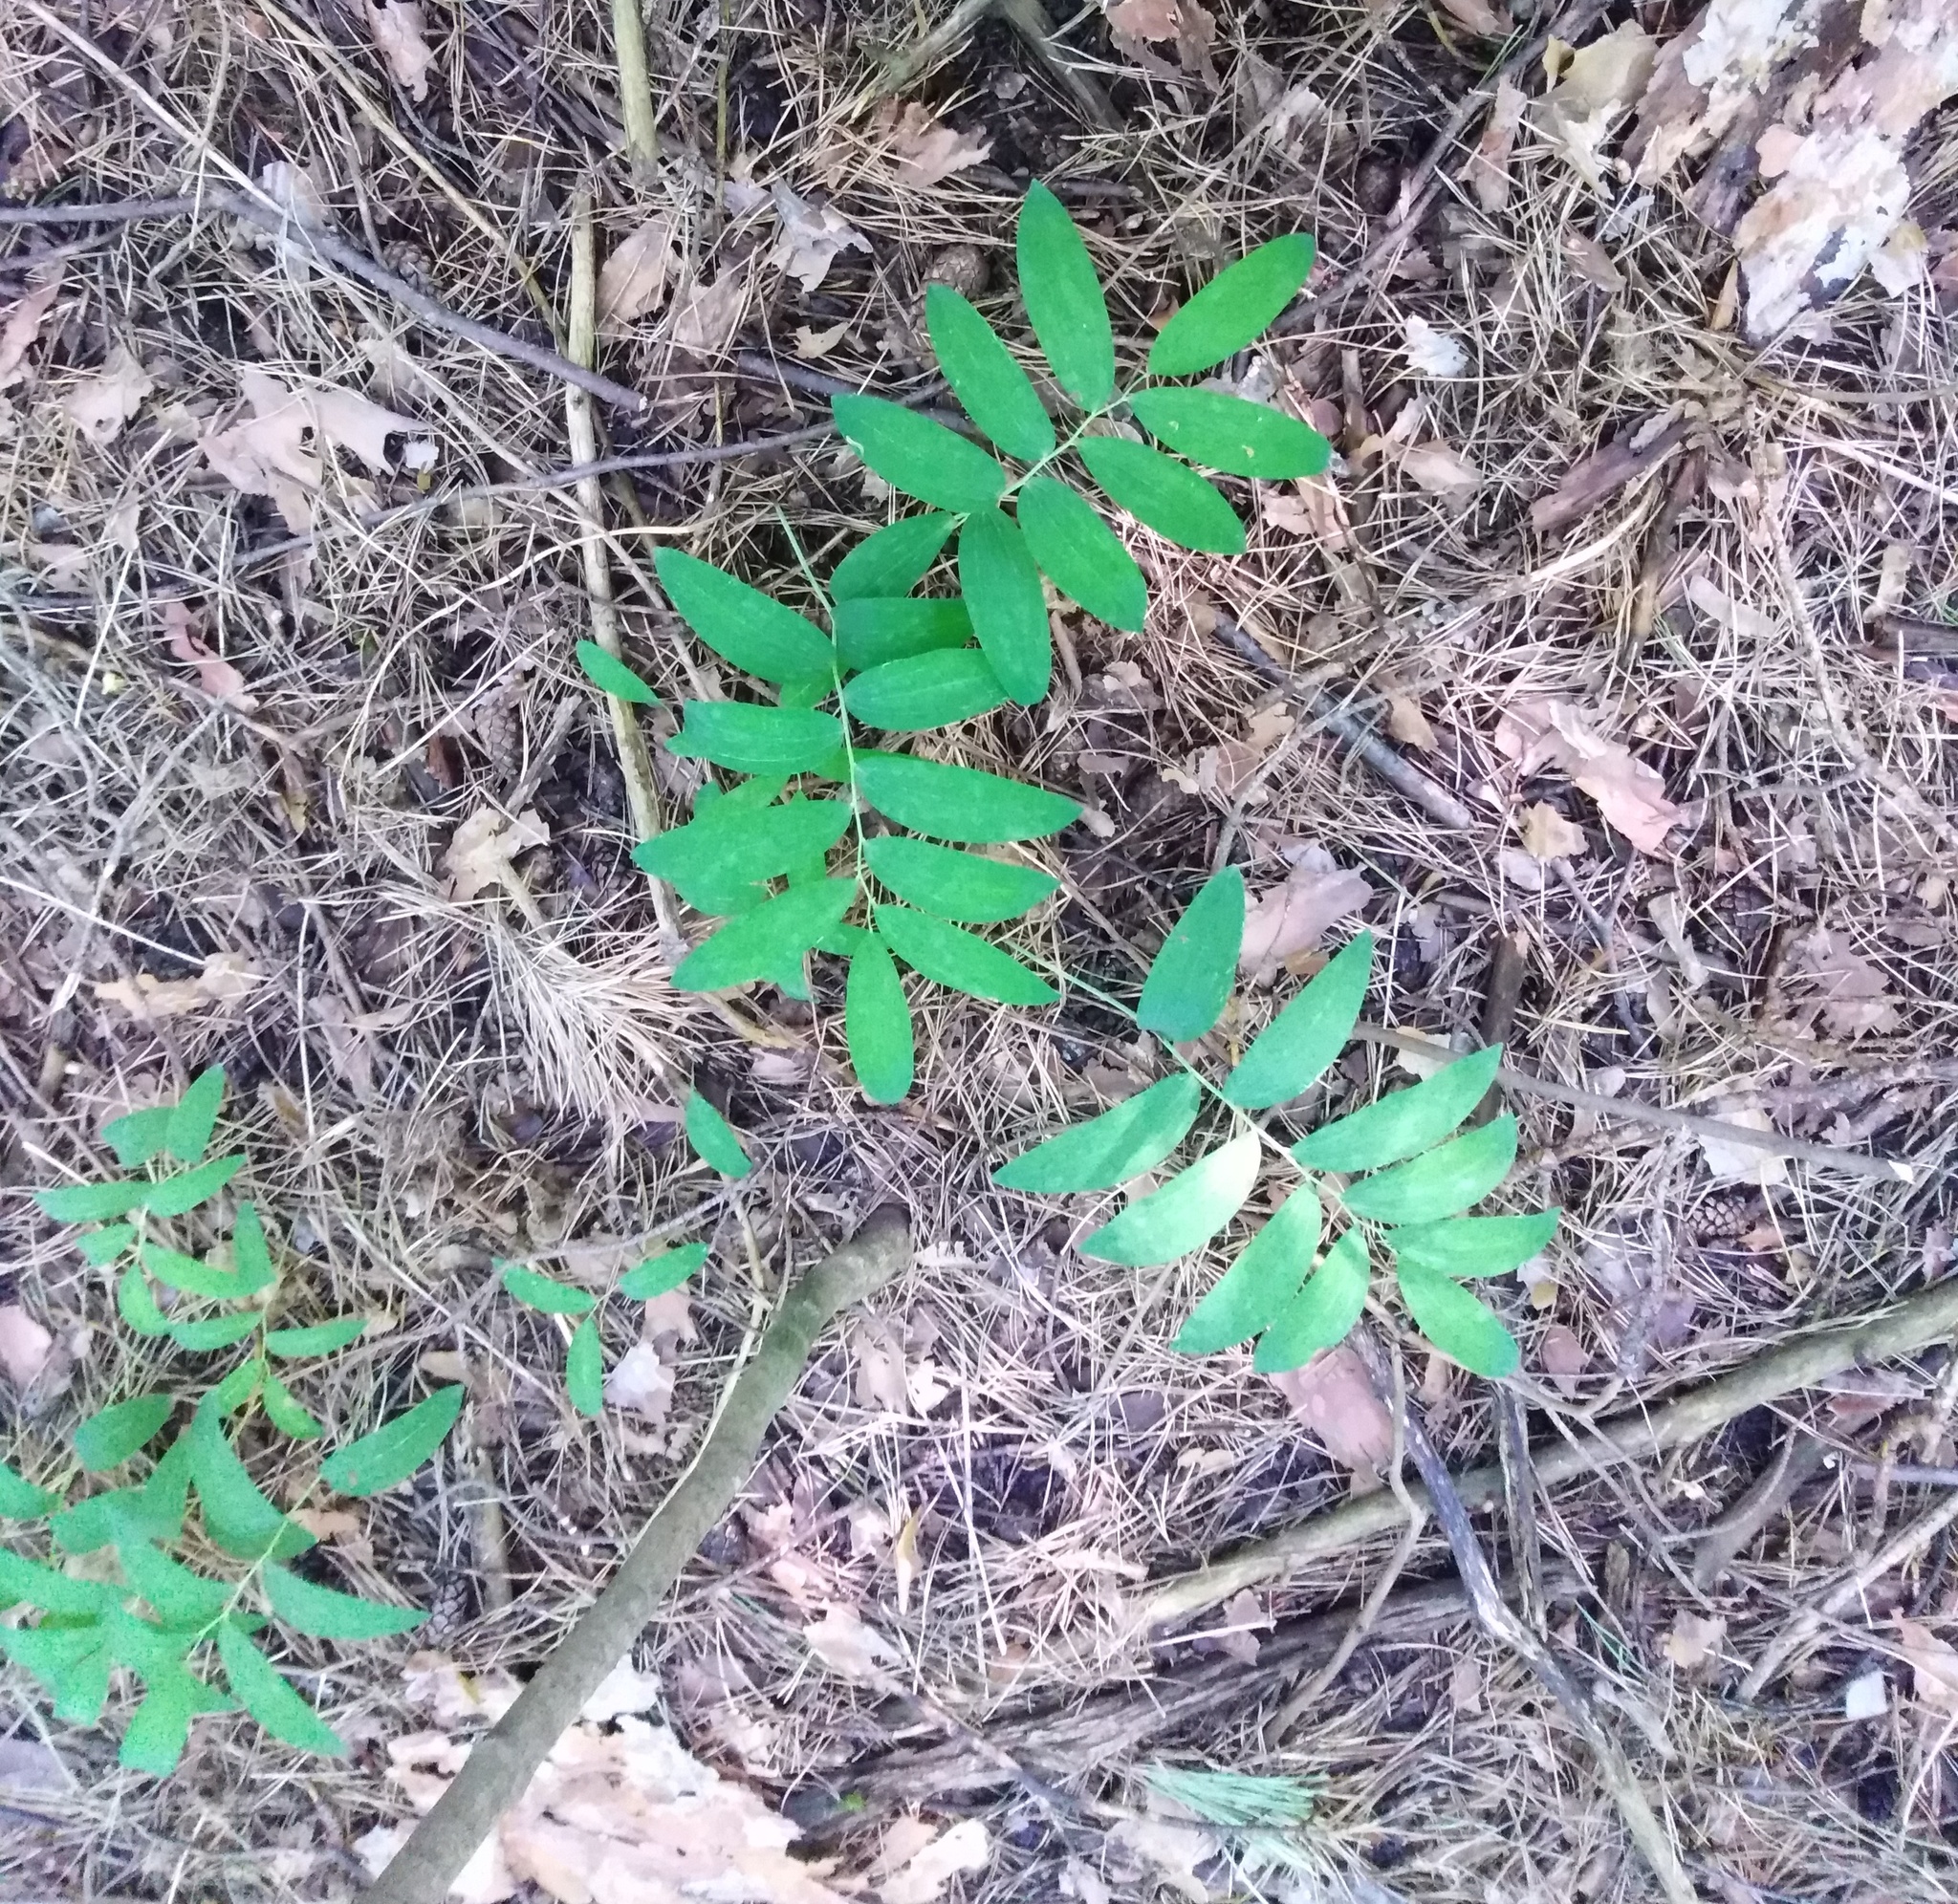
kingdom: Plantae
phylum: Tracheophyta
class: Liliopsida
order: Asparagales
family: Asparagaceae
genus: Polygonatum
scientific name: Polygonatum multiflorum
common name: Solomon's-seal
